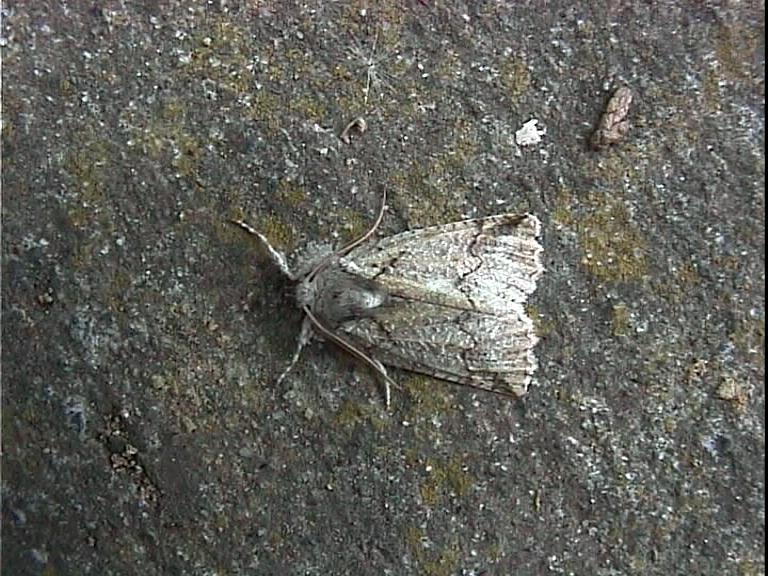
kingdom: Animalia
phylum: Arthropoda
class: Insecta
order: Lepidoptera
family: Geometridae
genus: Declana
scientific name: Declana floccosa
